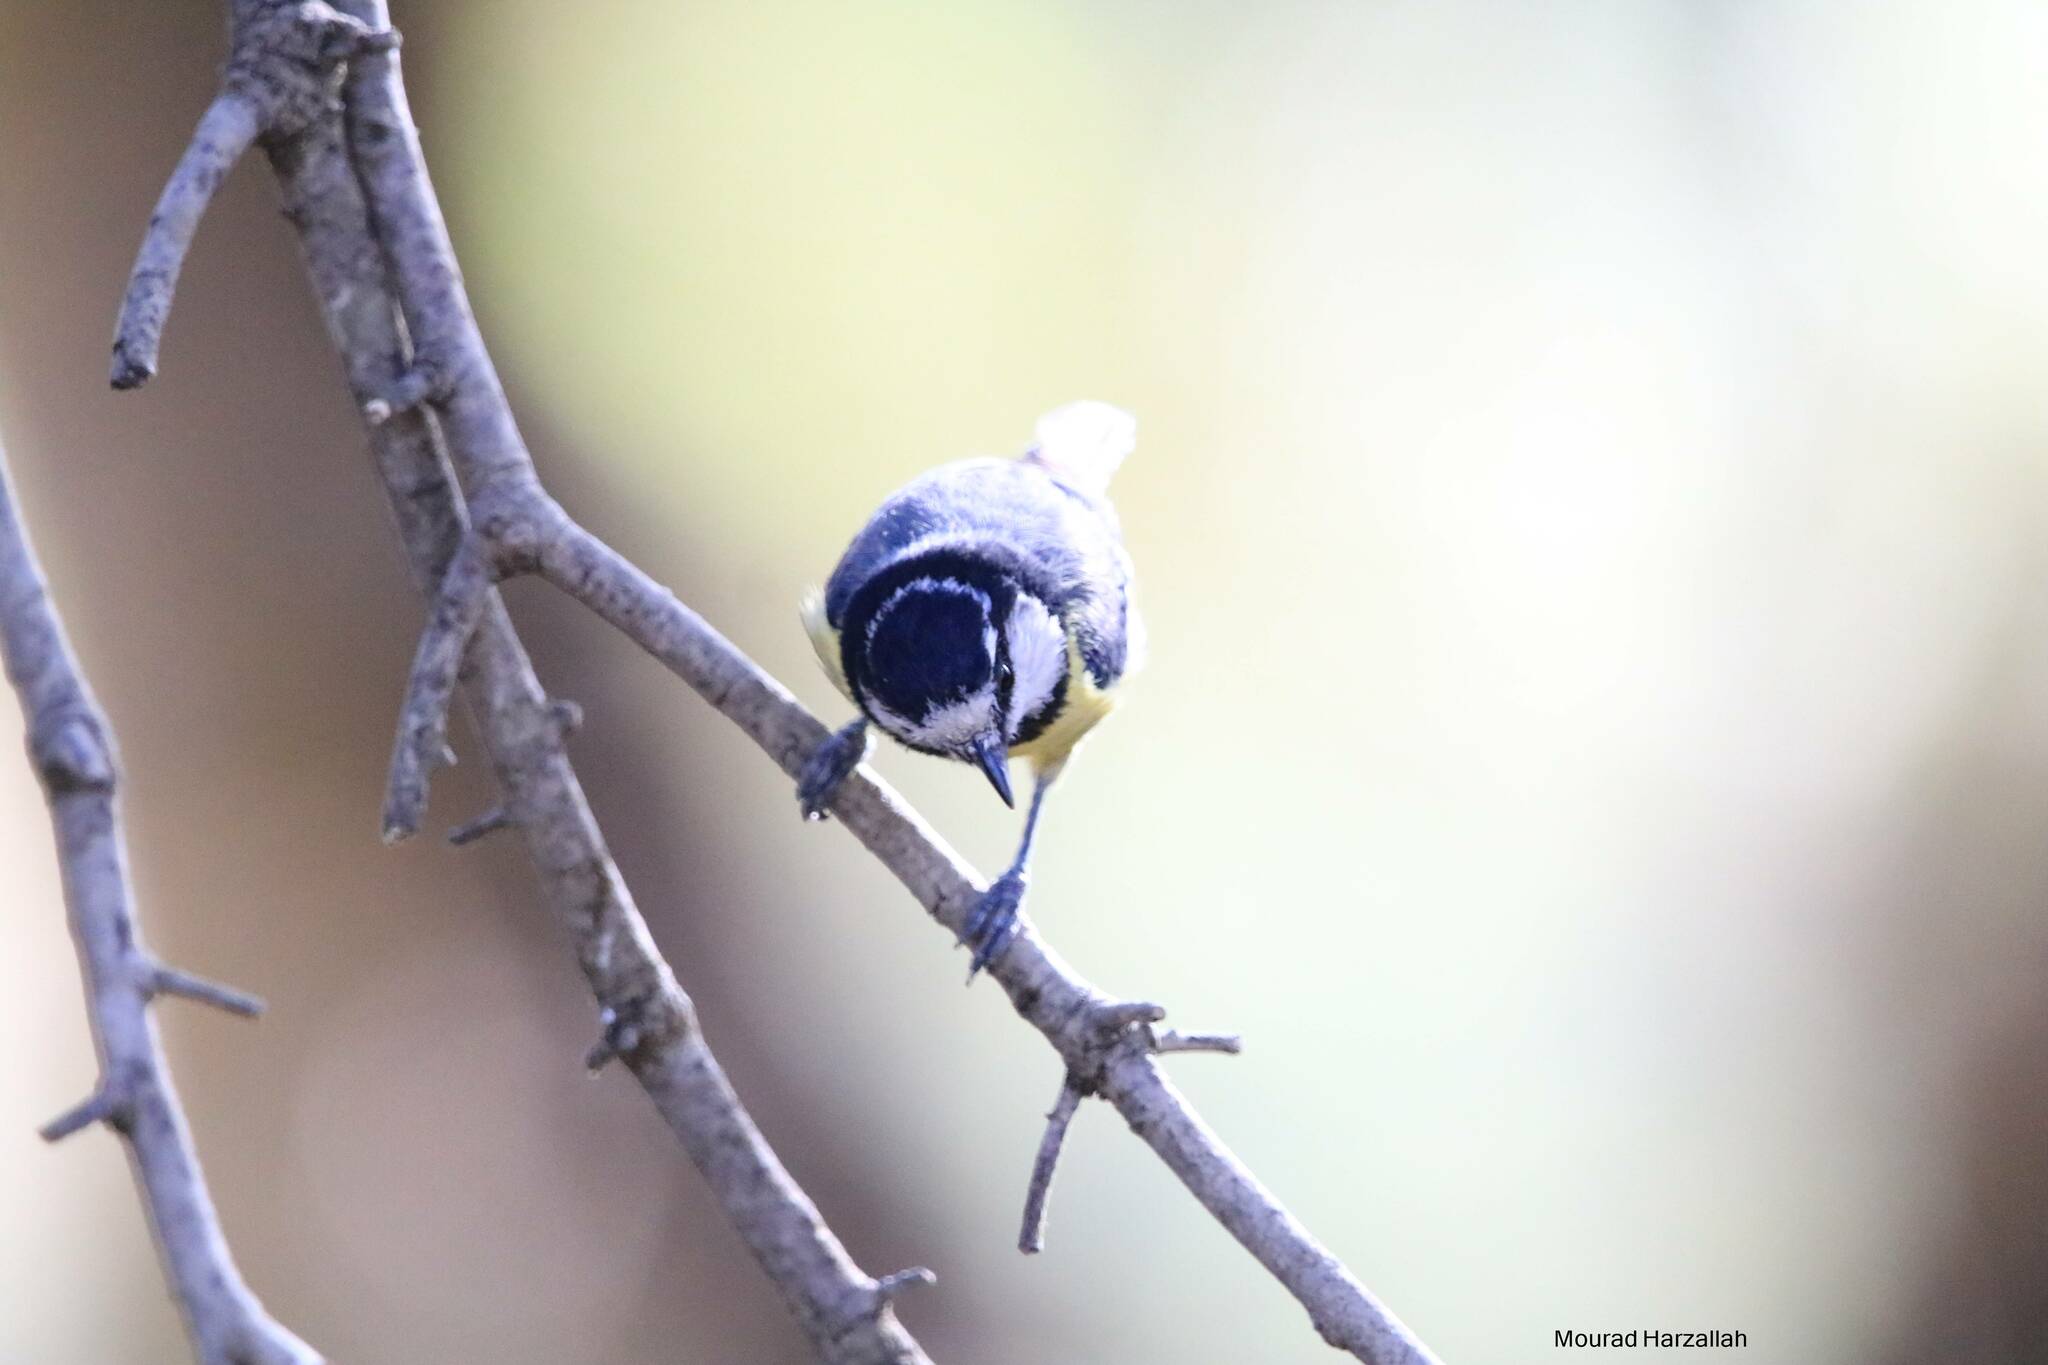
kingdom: Animalia
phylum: Chordata
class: Aves
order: Passeriformes
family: Paridae
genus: Cyanistes
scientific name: Cyanistes teneriffae
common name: African blue tit
